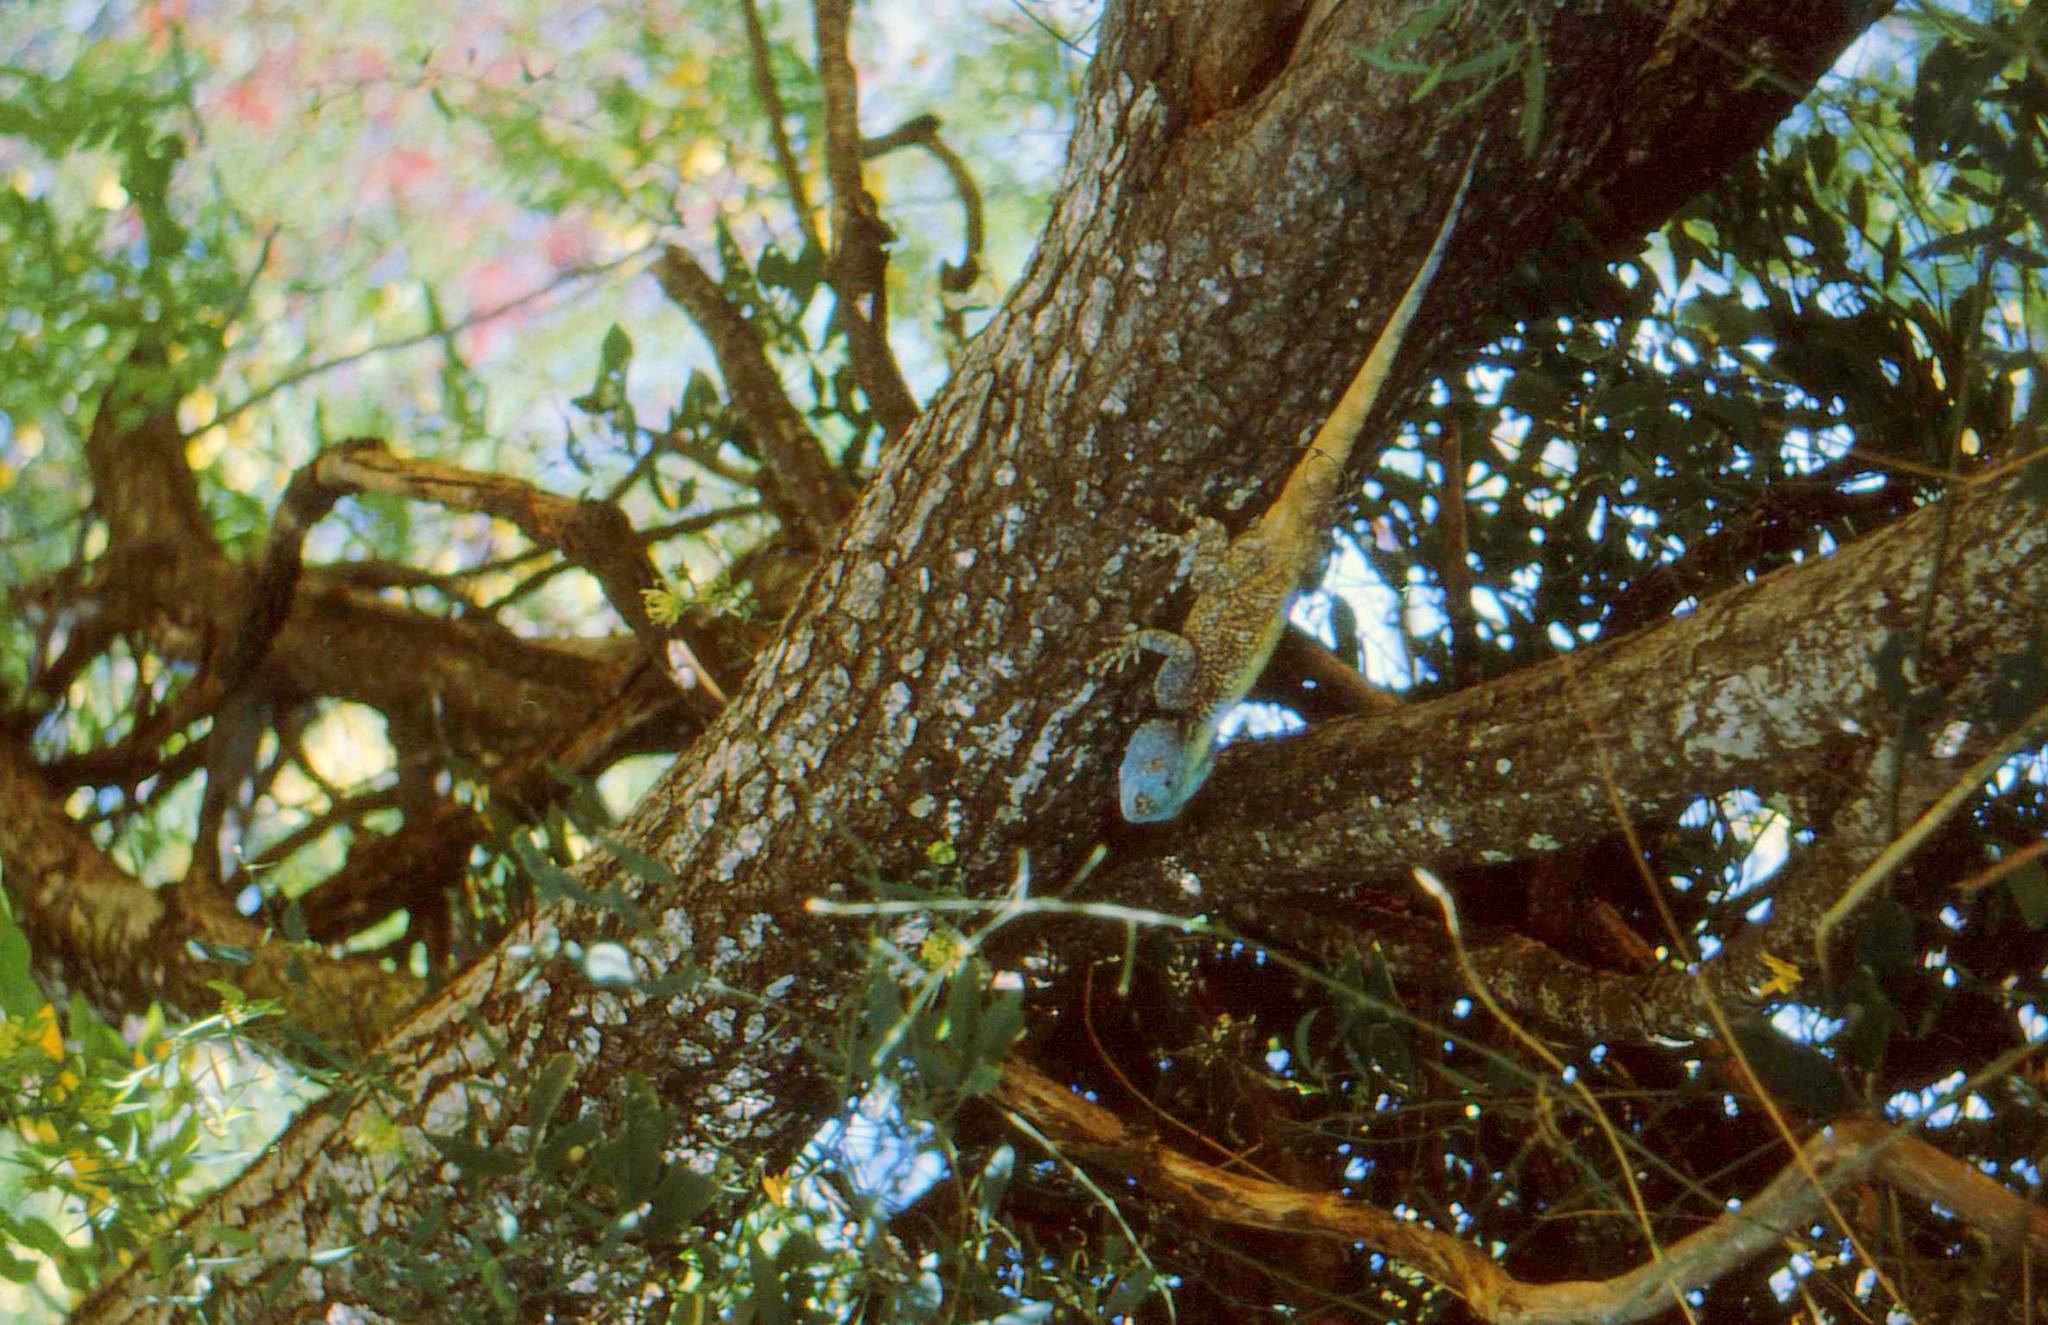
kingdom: Animalia
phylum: Chordata
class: Squamata
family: Agamidae
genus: Acanthocercus
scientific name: Acanthocercus atricollis
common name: Southern tree agama
